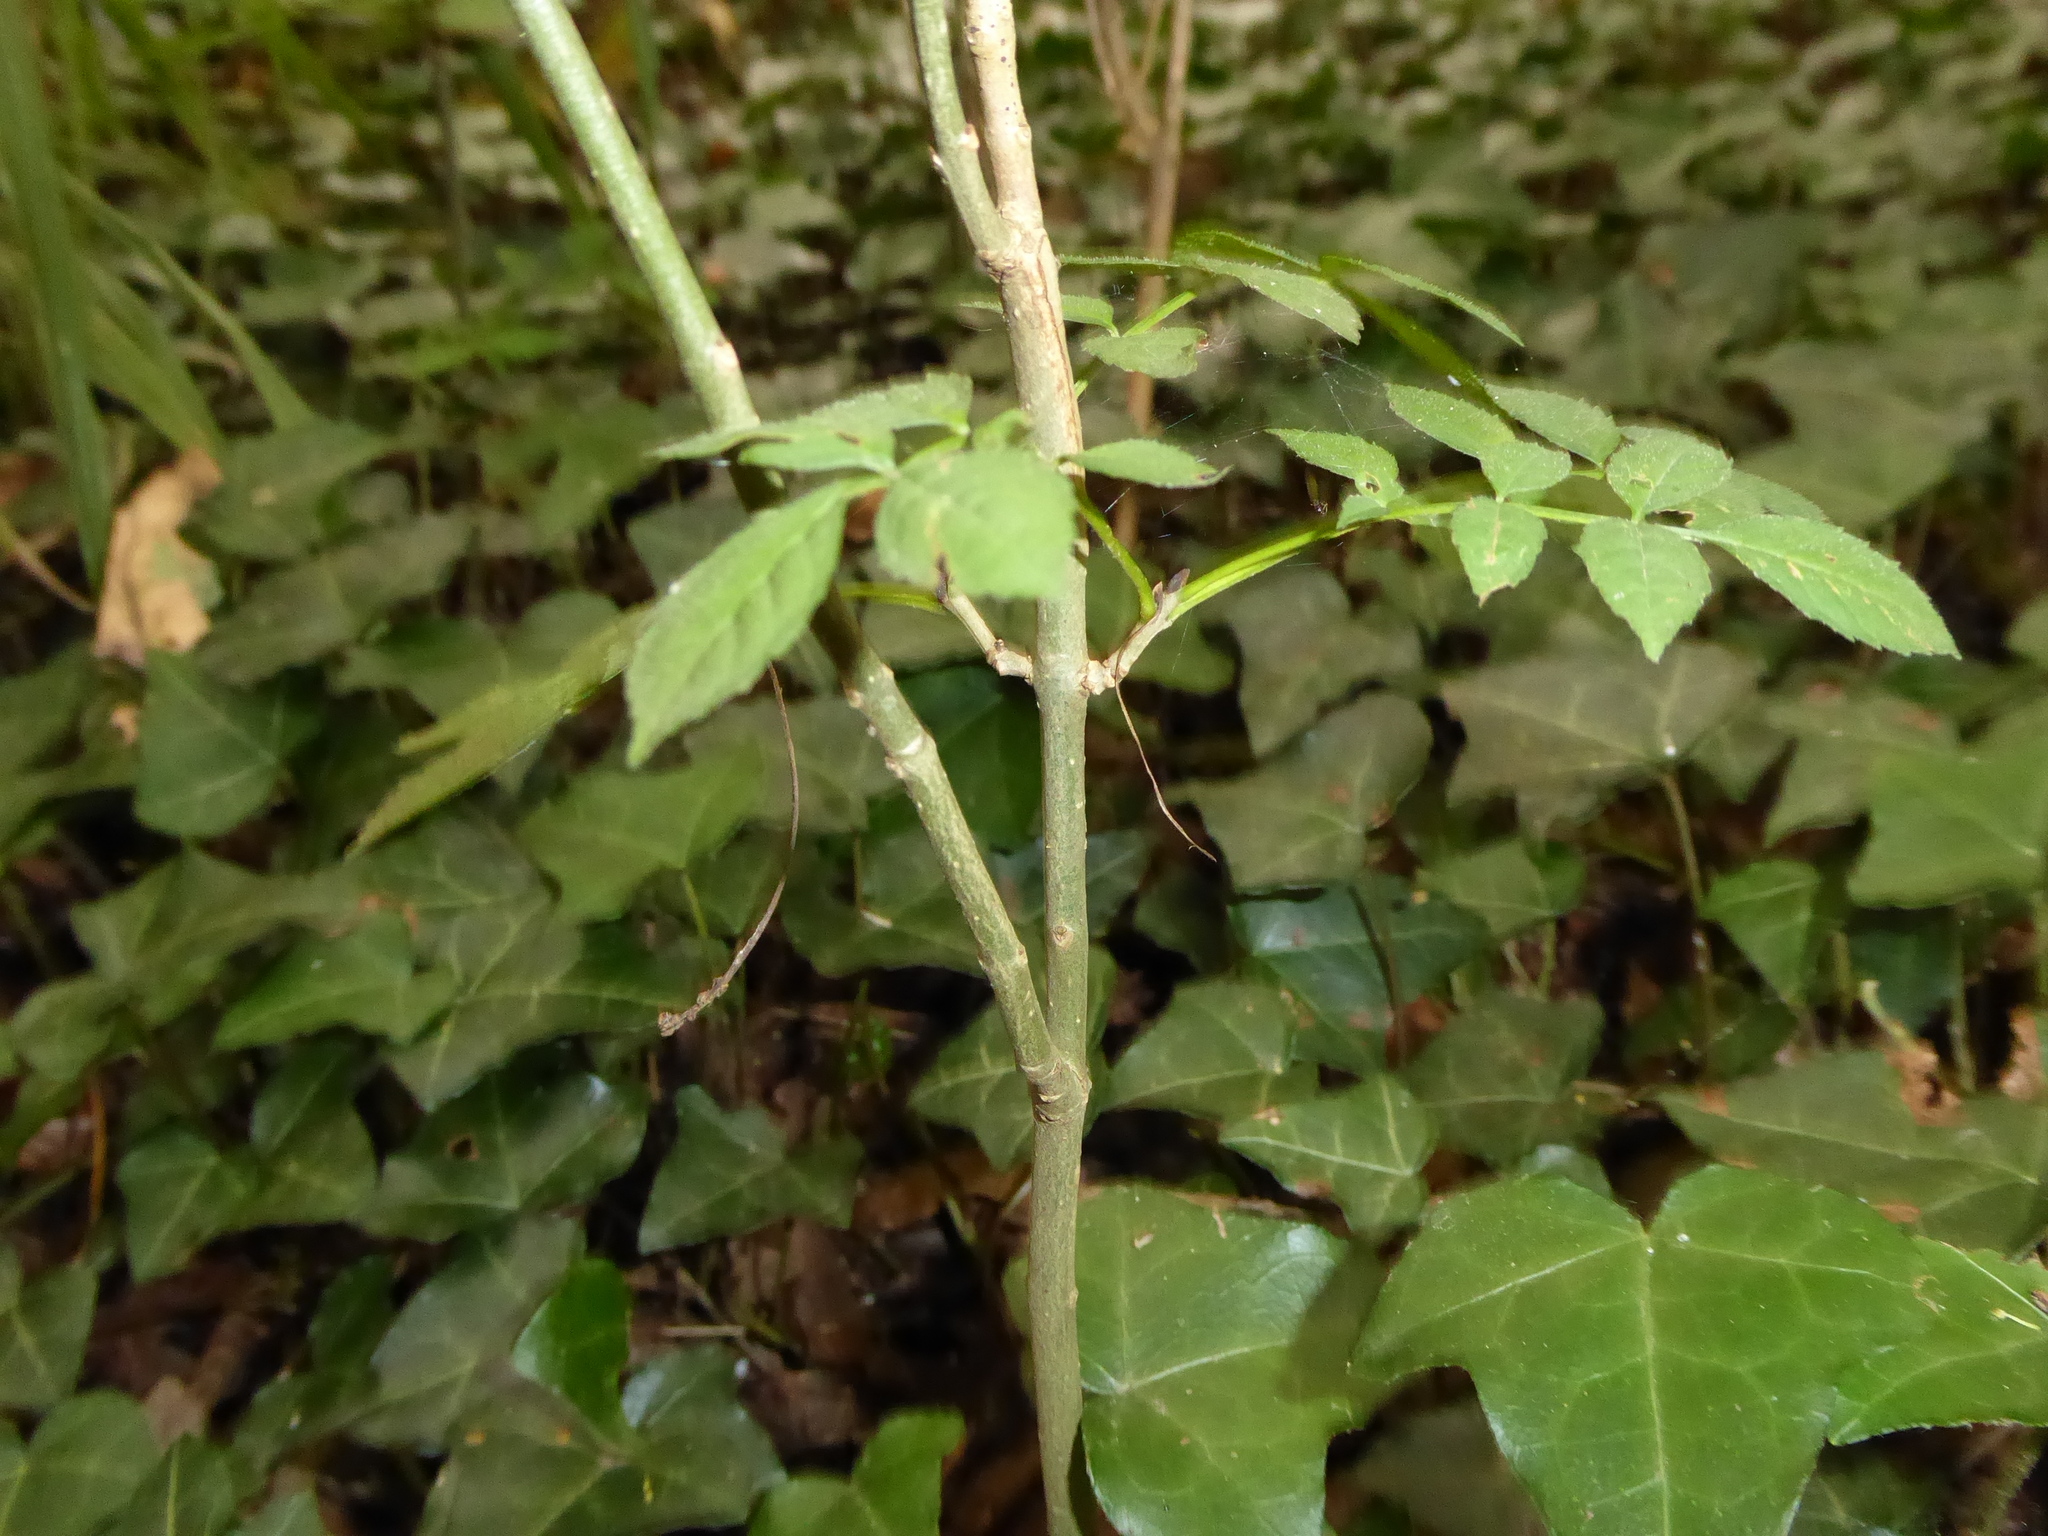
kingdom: Plantae
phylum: Tracheophyta
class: Magnoliopsida
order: Lamiales
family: Oleaceae
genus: Fraxinus
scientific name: Fraxinus excelsior
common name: European ash
